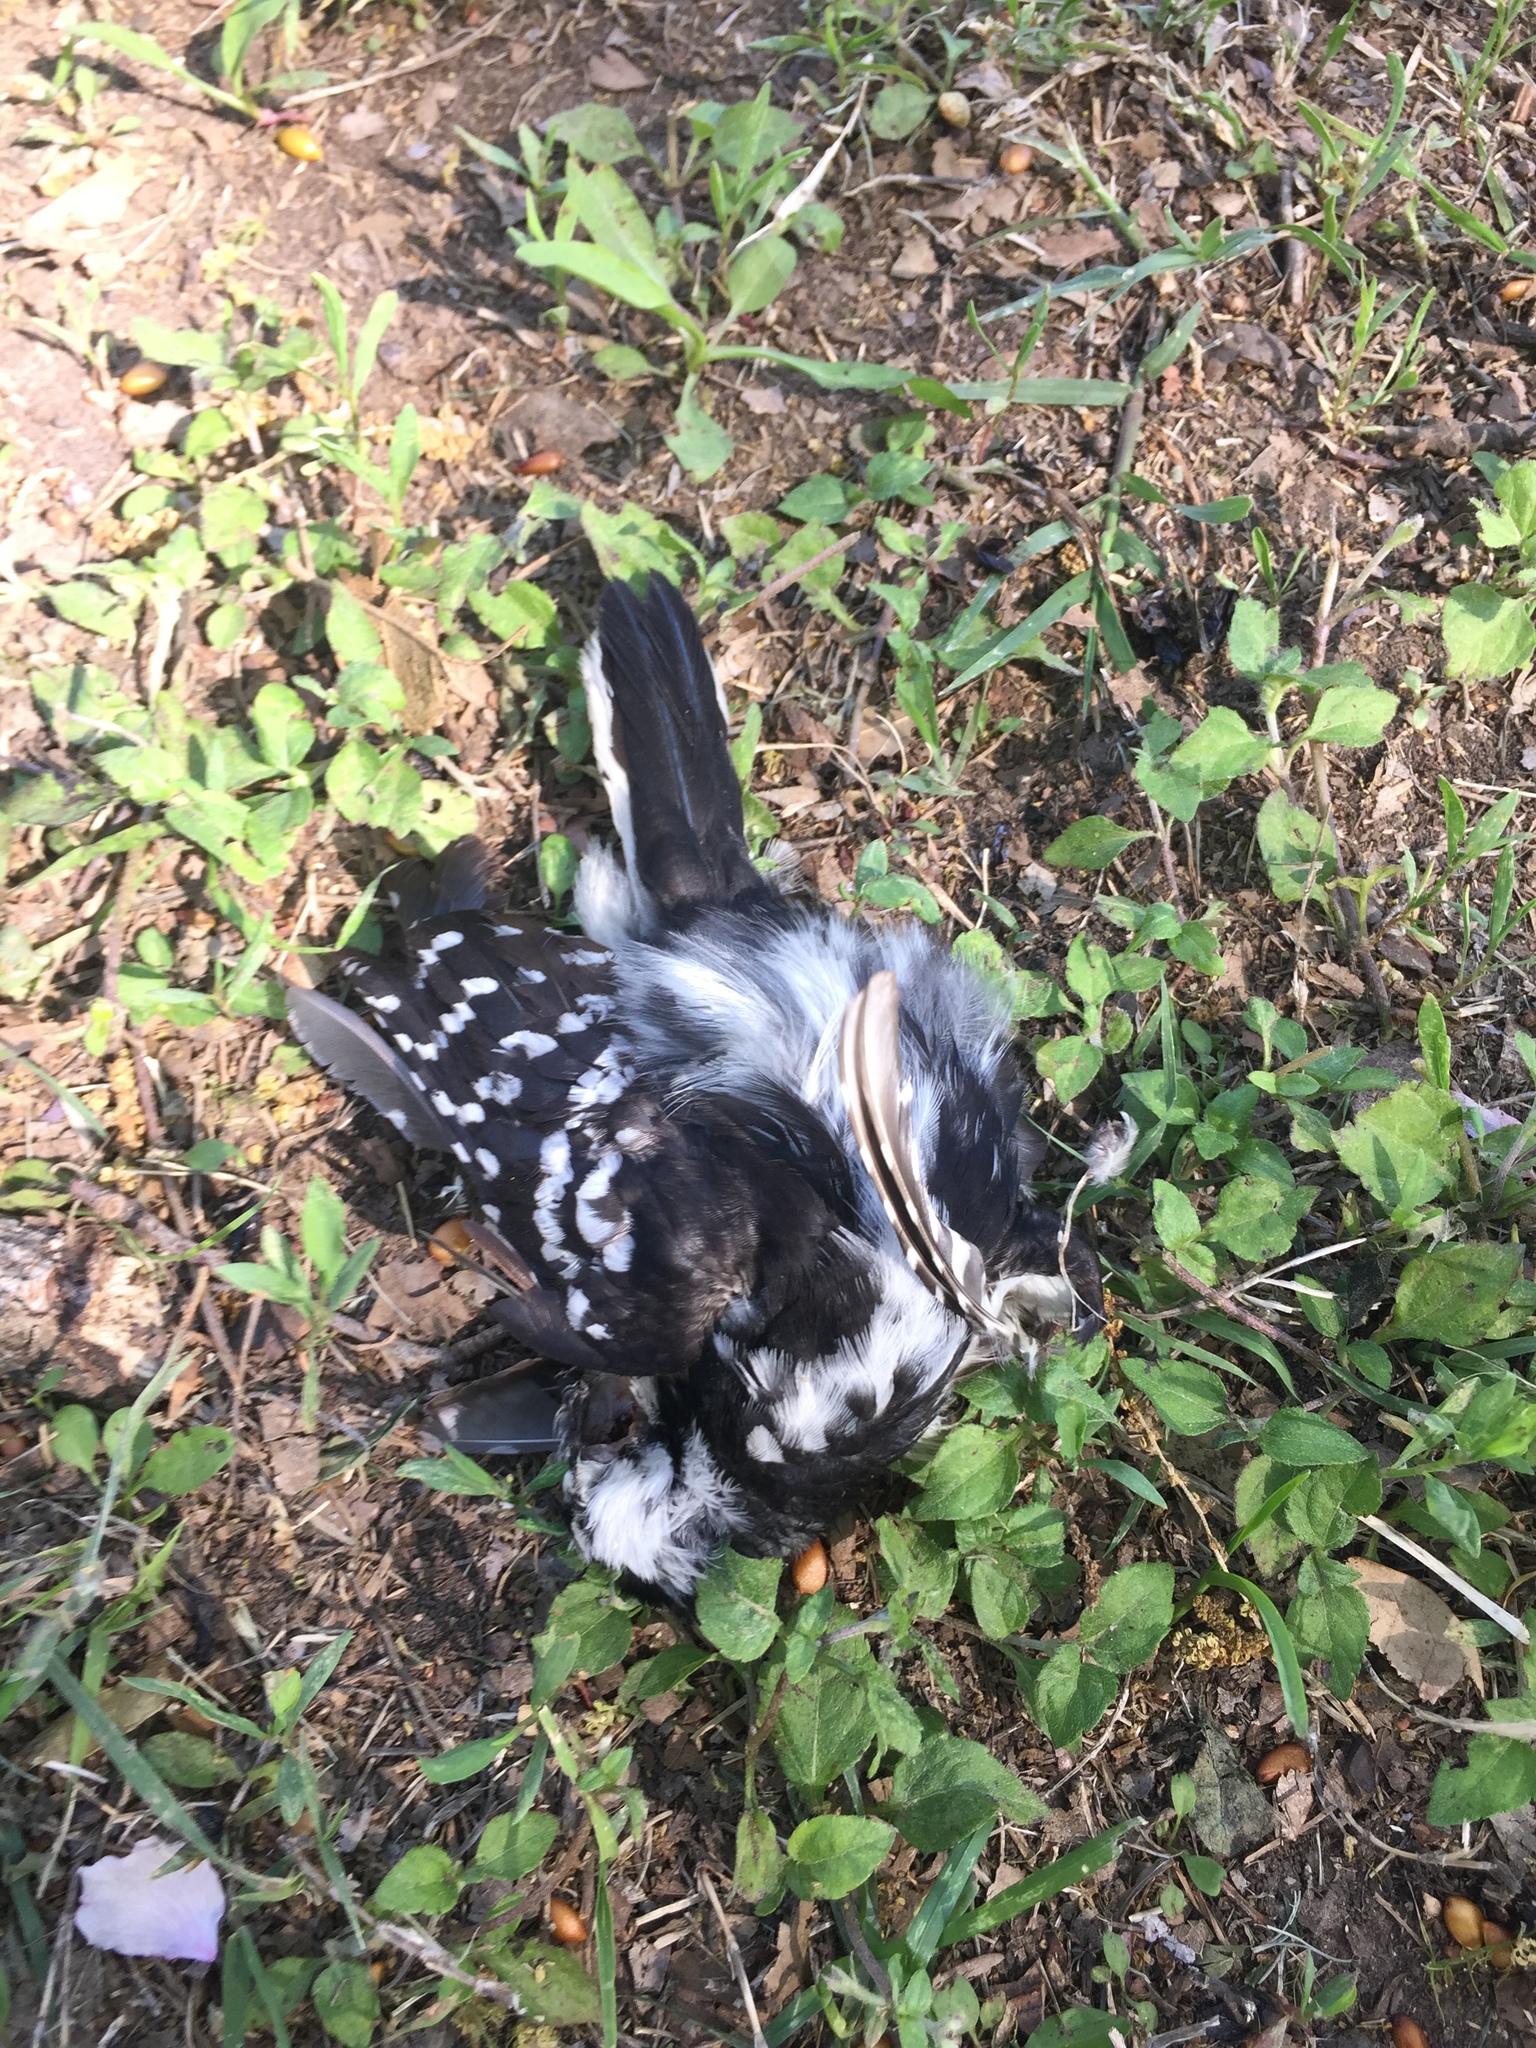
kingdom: Animalia
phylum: Chordata
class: Aves
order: Piciformes
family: Picidae
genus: Dryobates
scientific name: Dryobates pubescens
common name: Downy woodpecker
